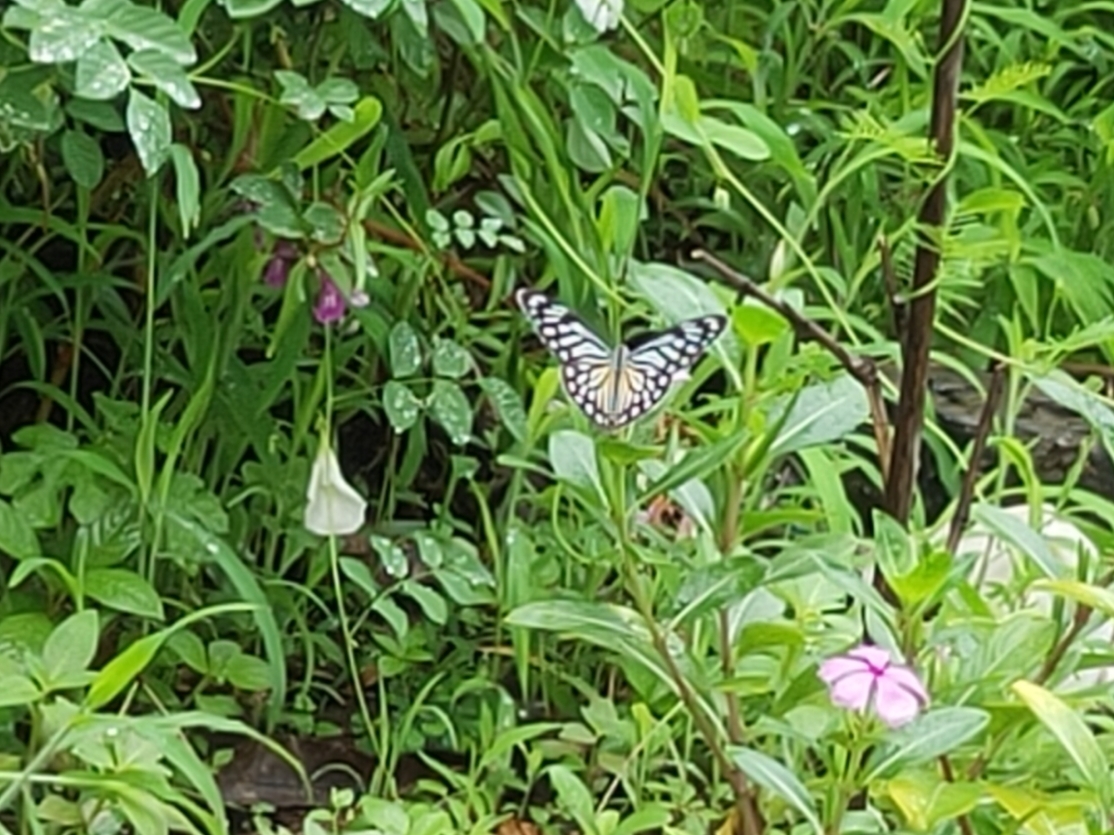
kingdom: Animalia
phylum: Arthropoda
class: Insecta
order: Lepidoptera
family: Pieridae
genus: Pareronia
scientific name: Pareronia hippia
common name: Indian wanderer
